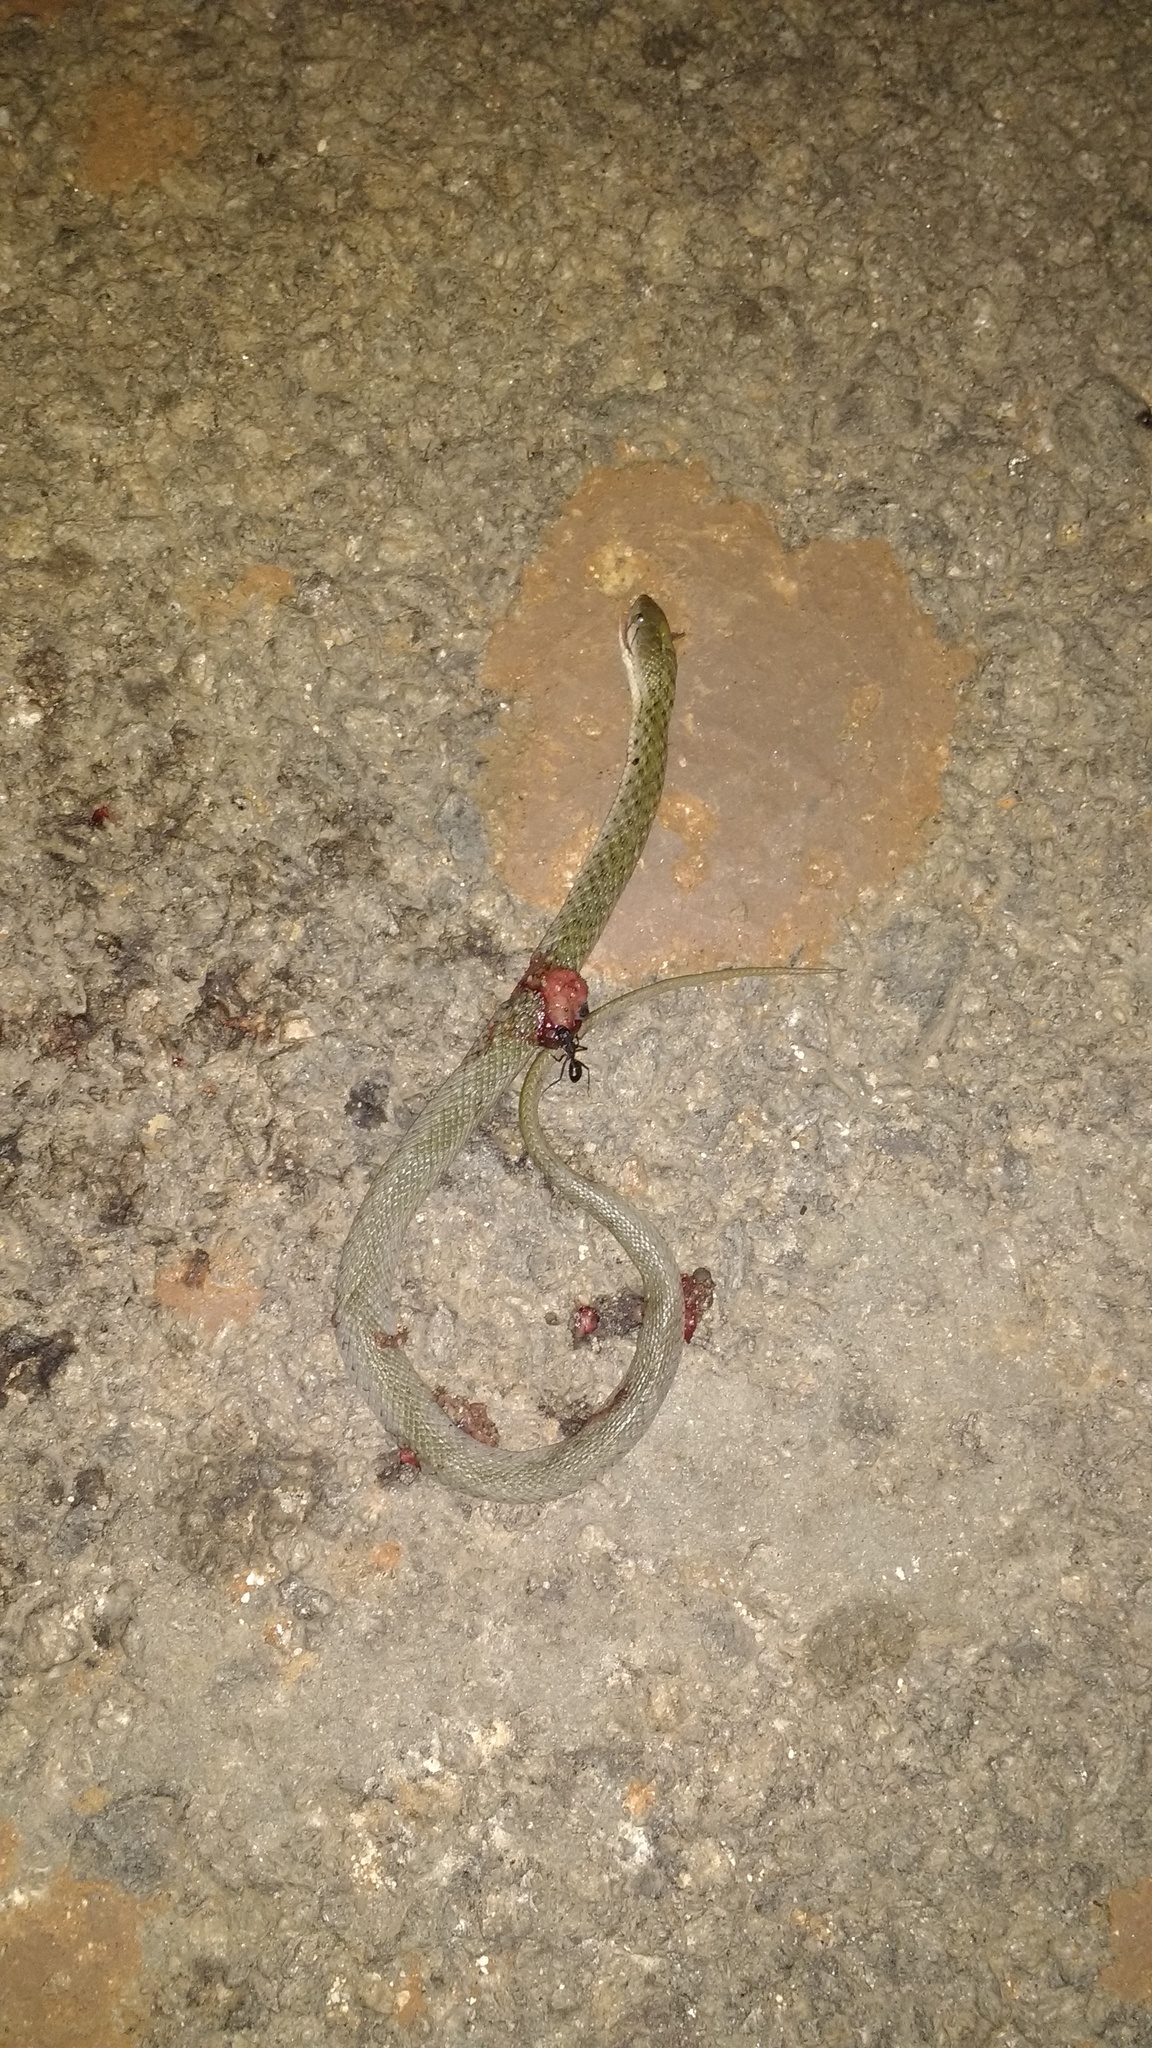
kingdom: Animalia
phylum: Chordata
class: Squamata
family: Colubridae
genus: Fowlea
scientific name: Fowlea piscator
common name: Asiatic water snake
